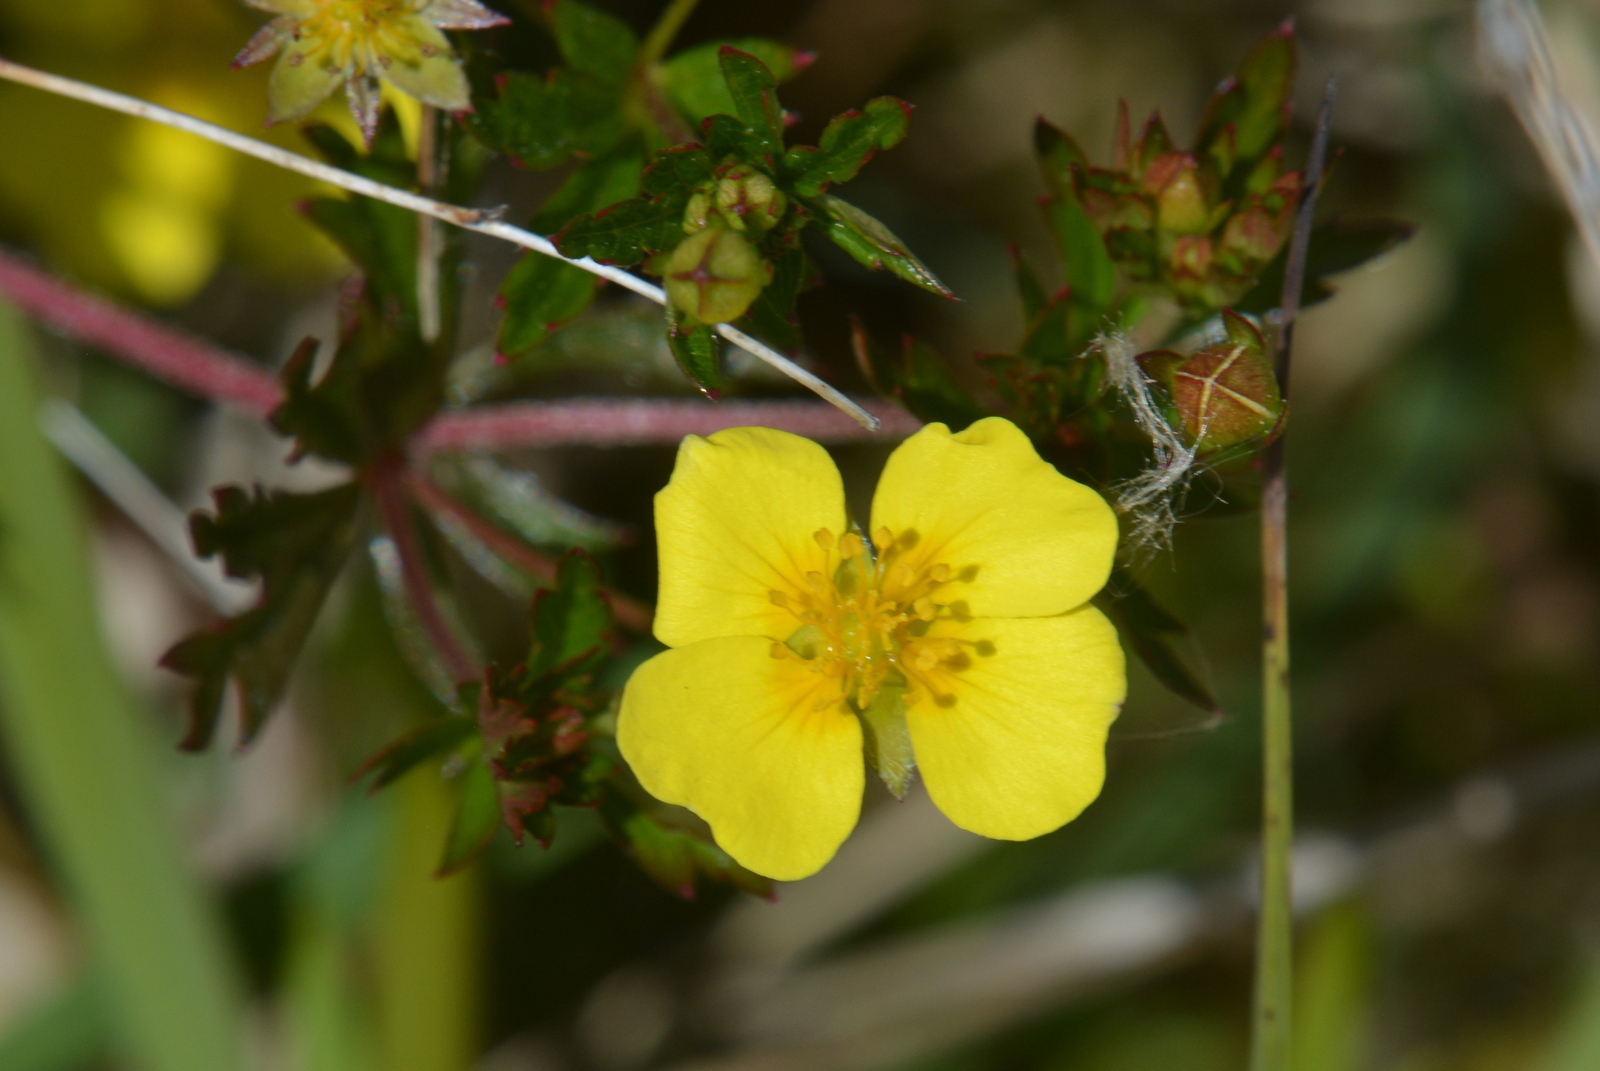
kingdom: Plantae
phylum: Tracheophyta
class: Magnoliopsida
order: Rosales
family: Rosaceae
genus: Potentilla
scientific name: Potentilla erecta
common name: Tormentil
